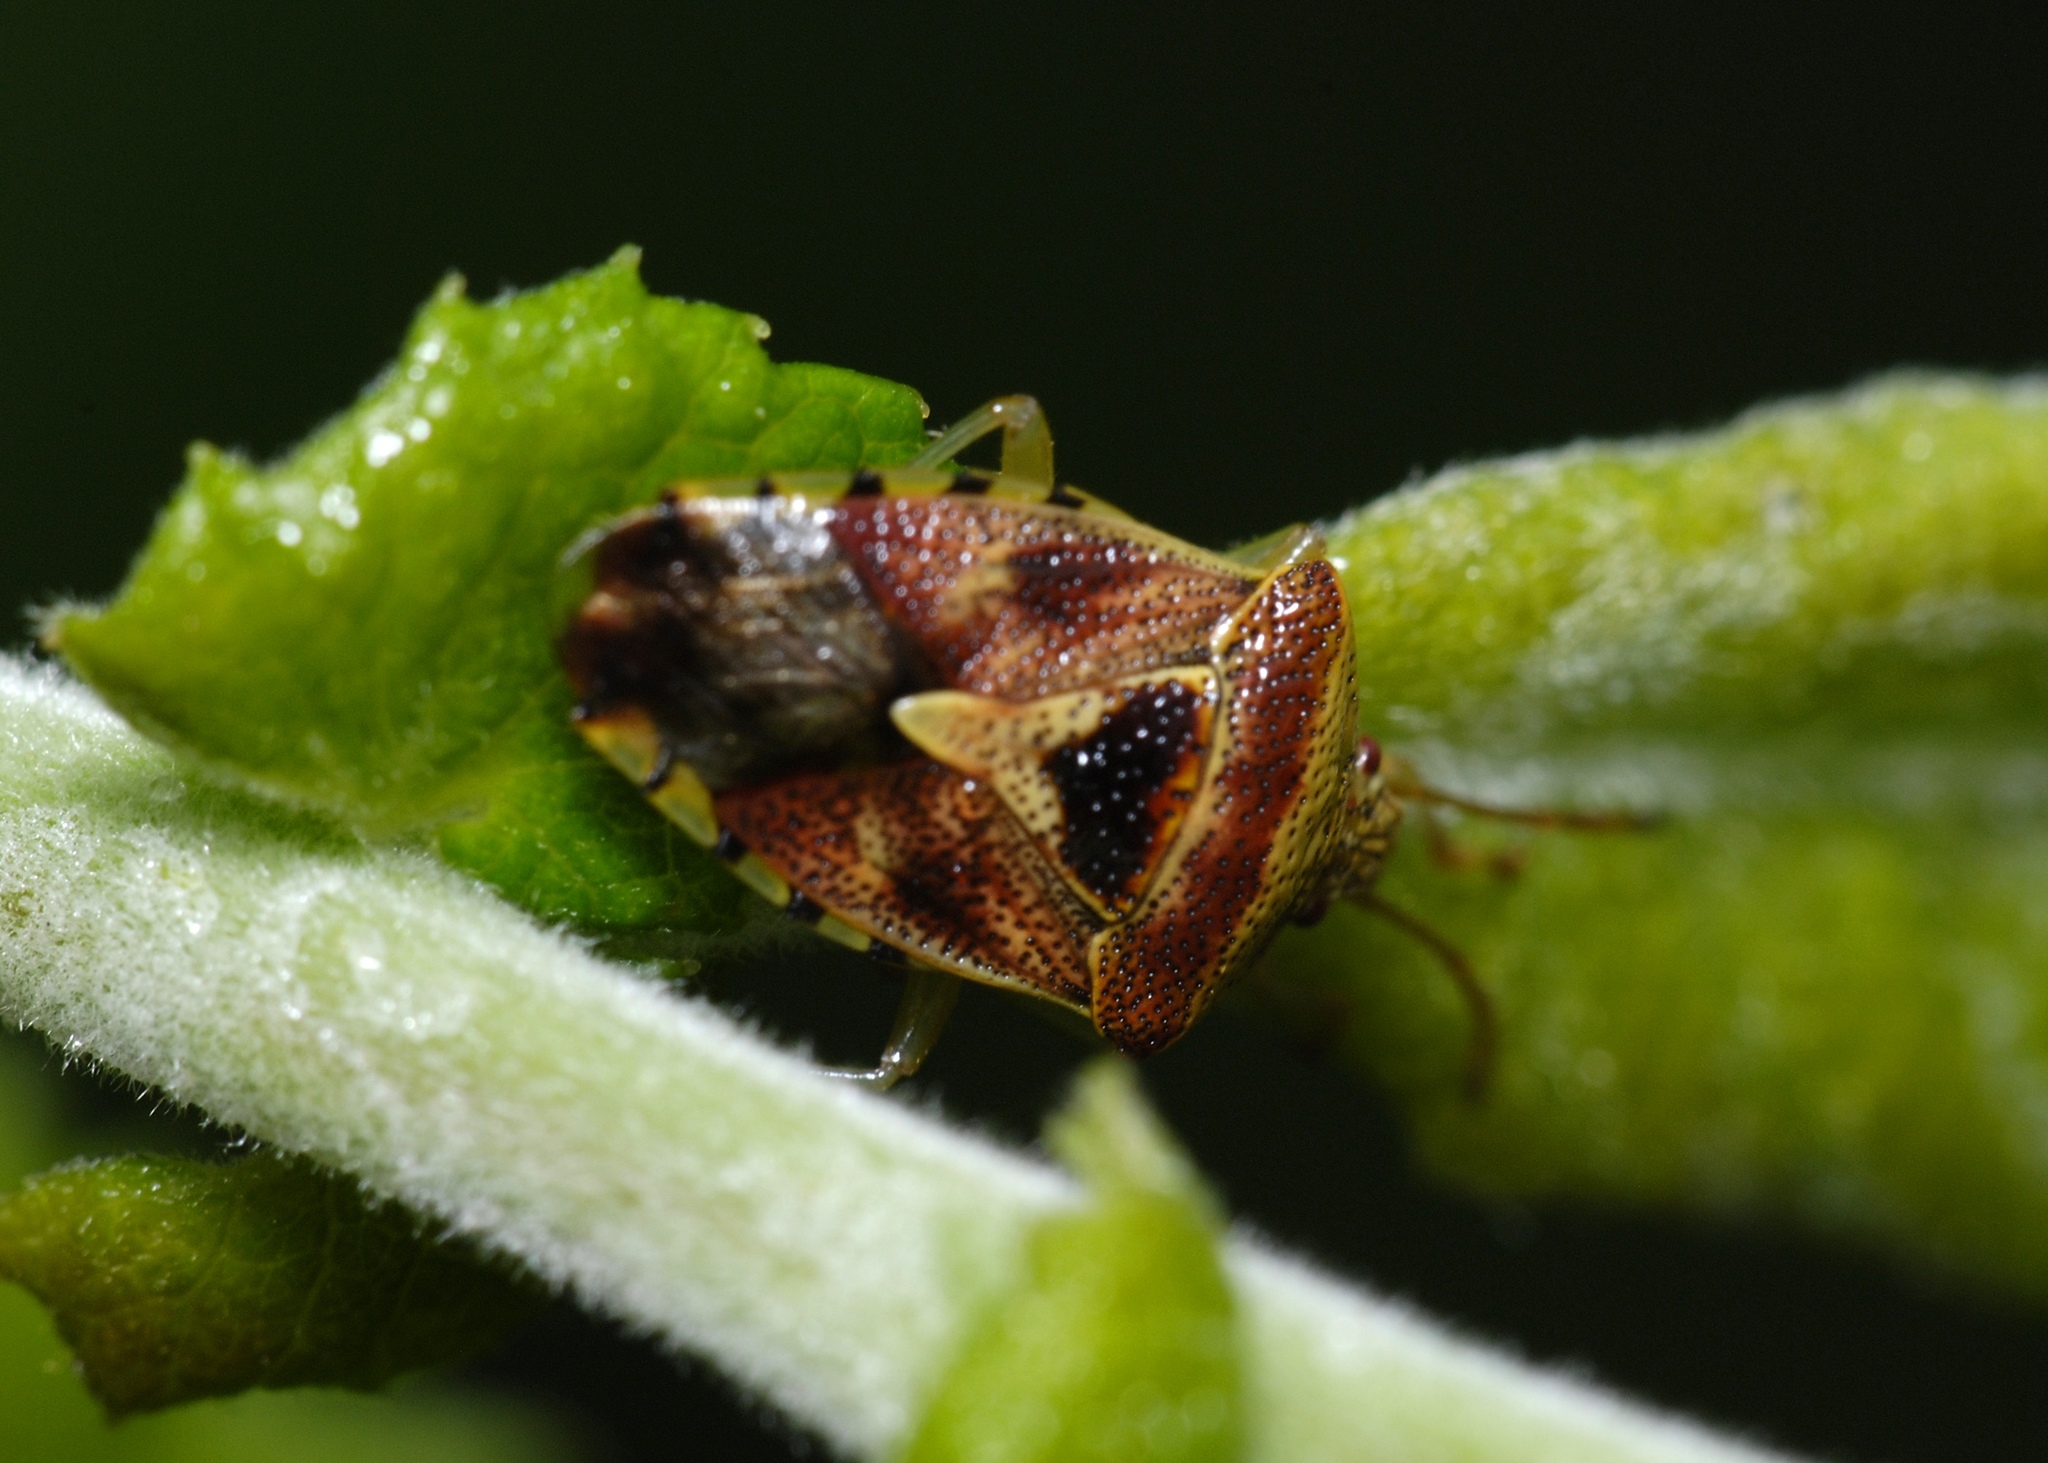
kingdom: Animalia
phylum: Arthropoda
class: Insecta
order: Hemiptera
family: Acanthosomatidae
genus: Elasmucha
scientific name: Elasmucha grisea
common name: Parent bug
